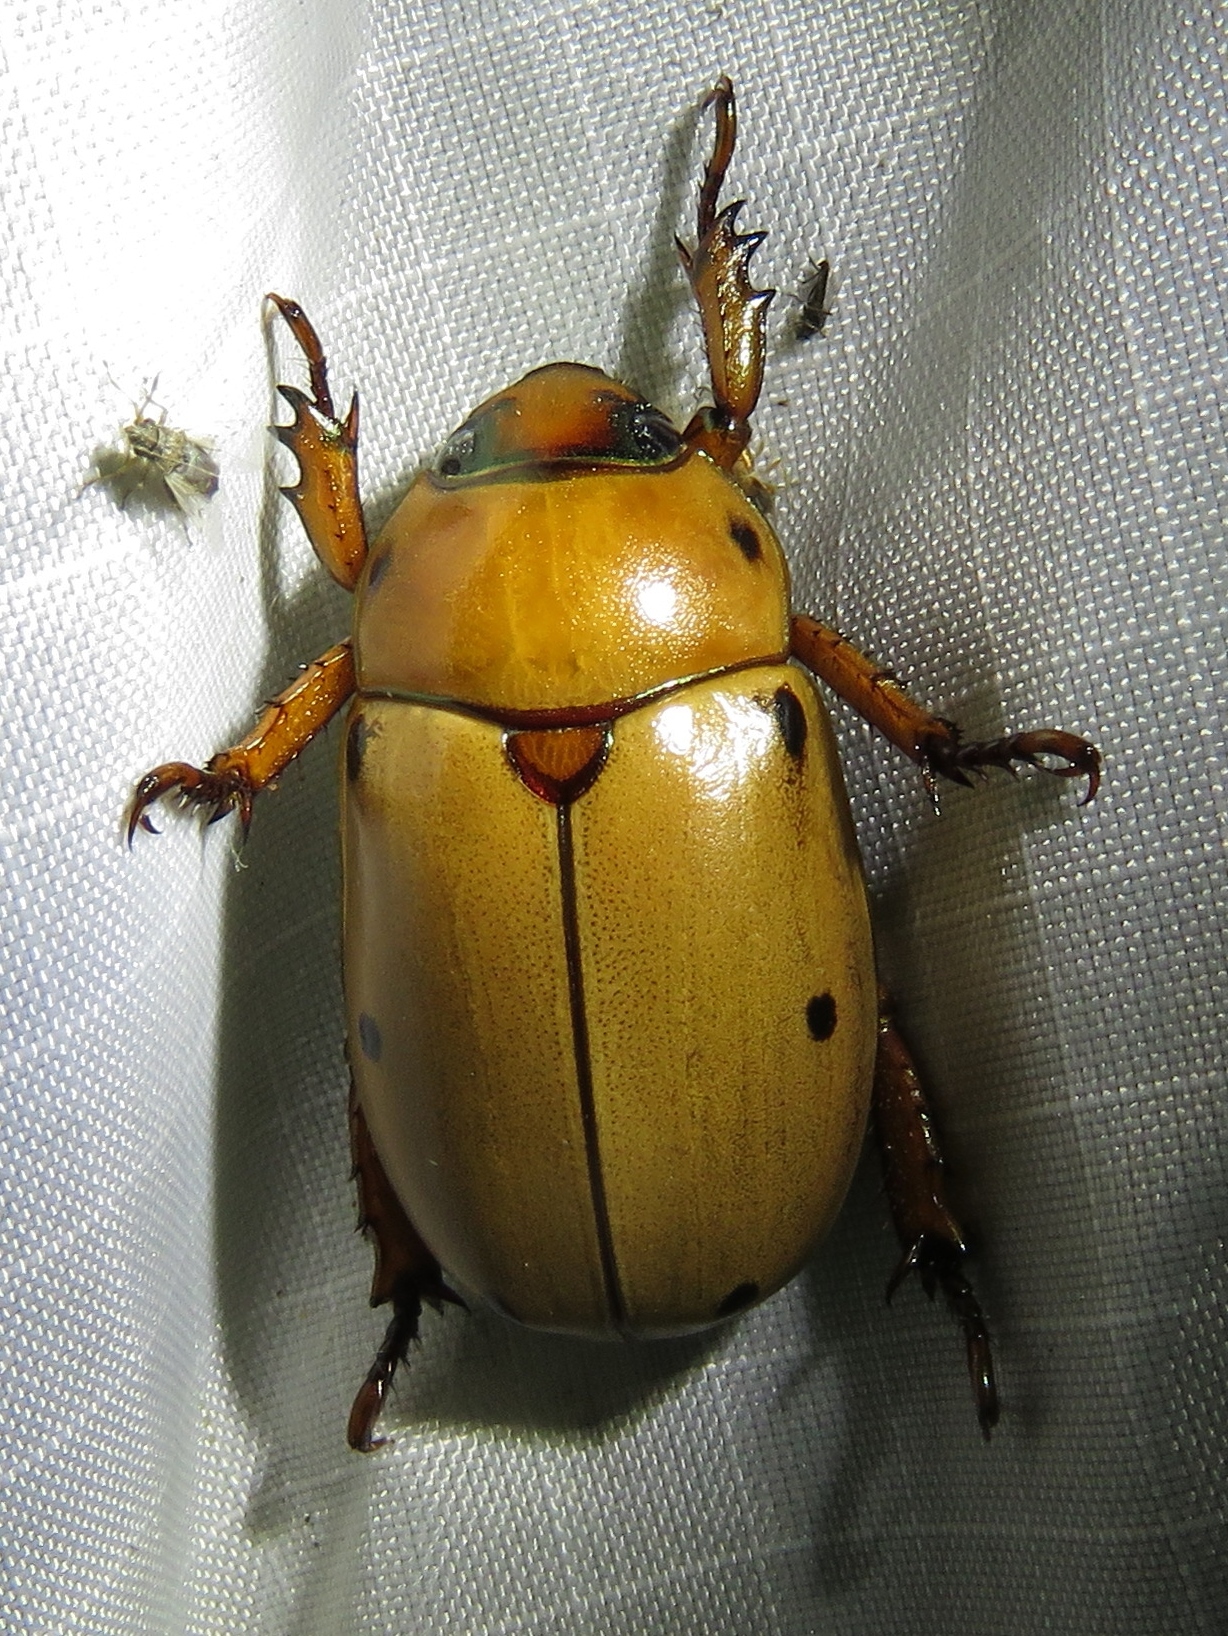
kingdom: Animalia
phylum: Arthropoda
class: Insecta
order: Coleoptera
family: Scarabaeidae
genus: Pelidnota
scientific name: Pelidnota punctata
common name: Grapevine beetle
